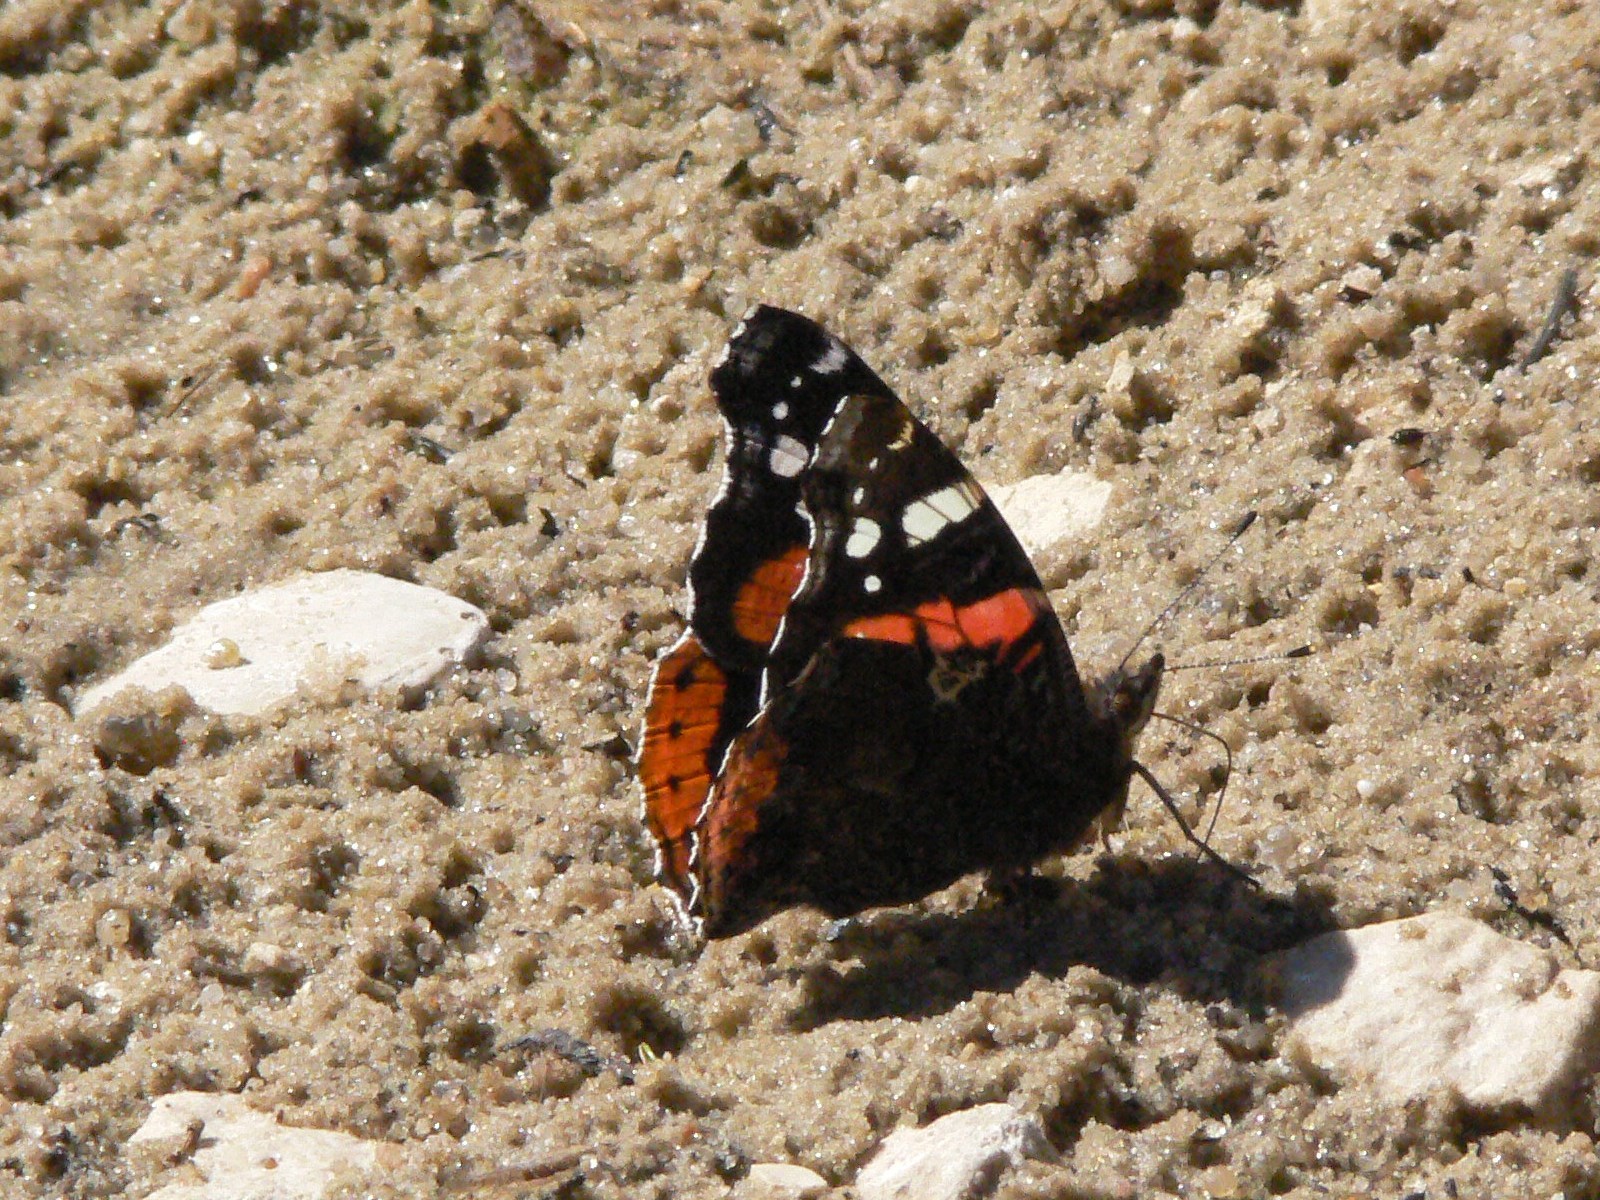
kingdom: Animalia
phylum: Arthropoda
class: Insecta
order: Lepidoptera
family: Nymphalidae
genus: Vanessa
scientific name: Vanessa atalanta
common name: Red admiral
